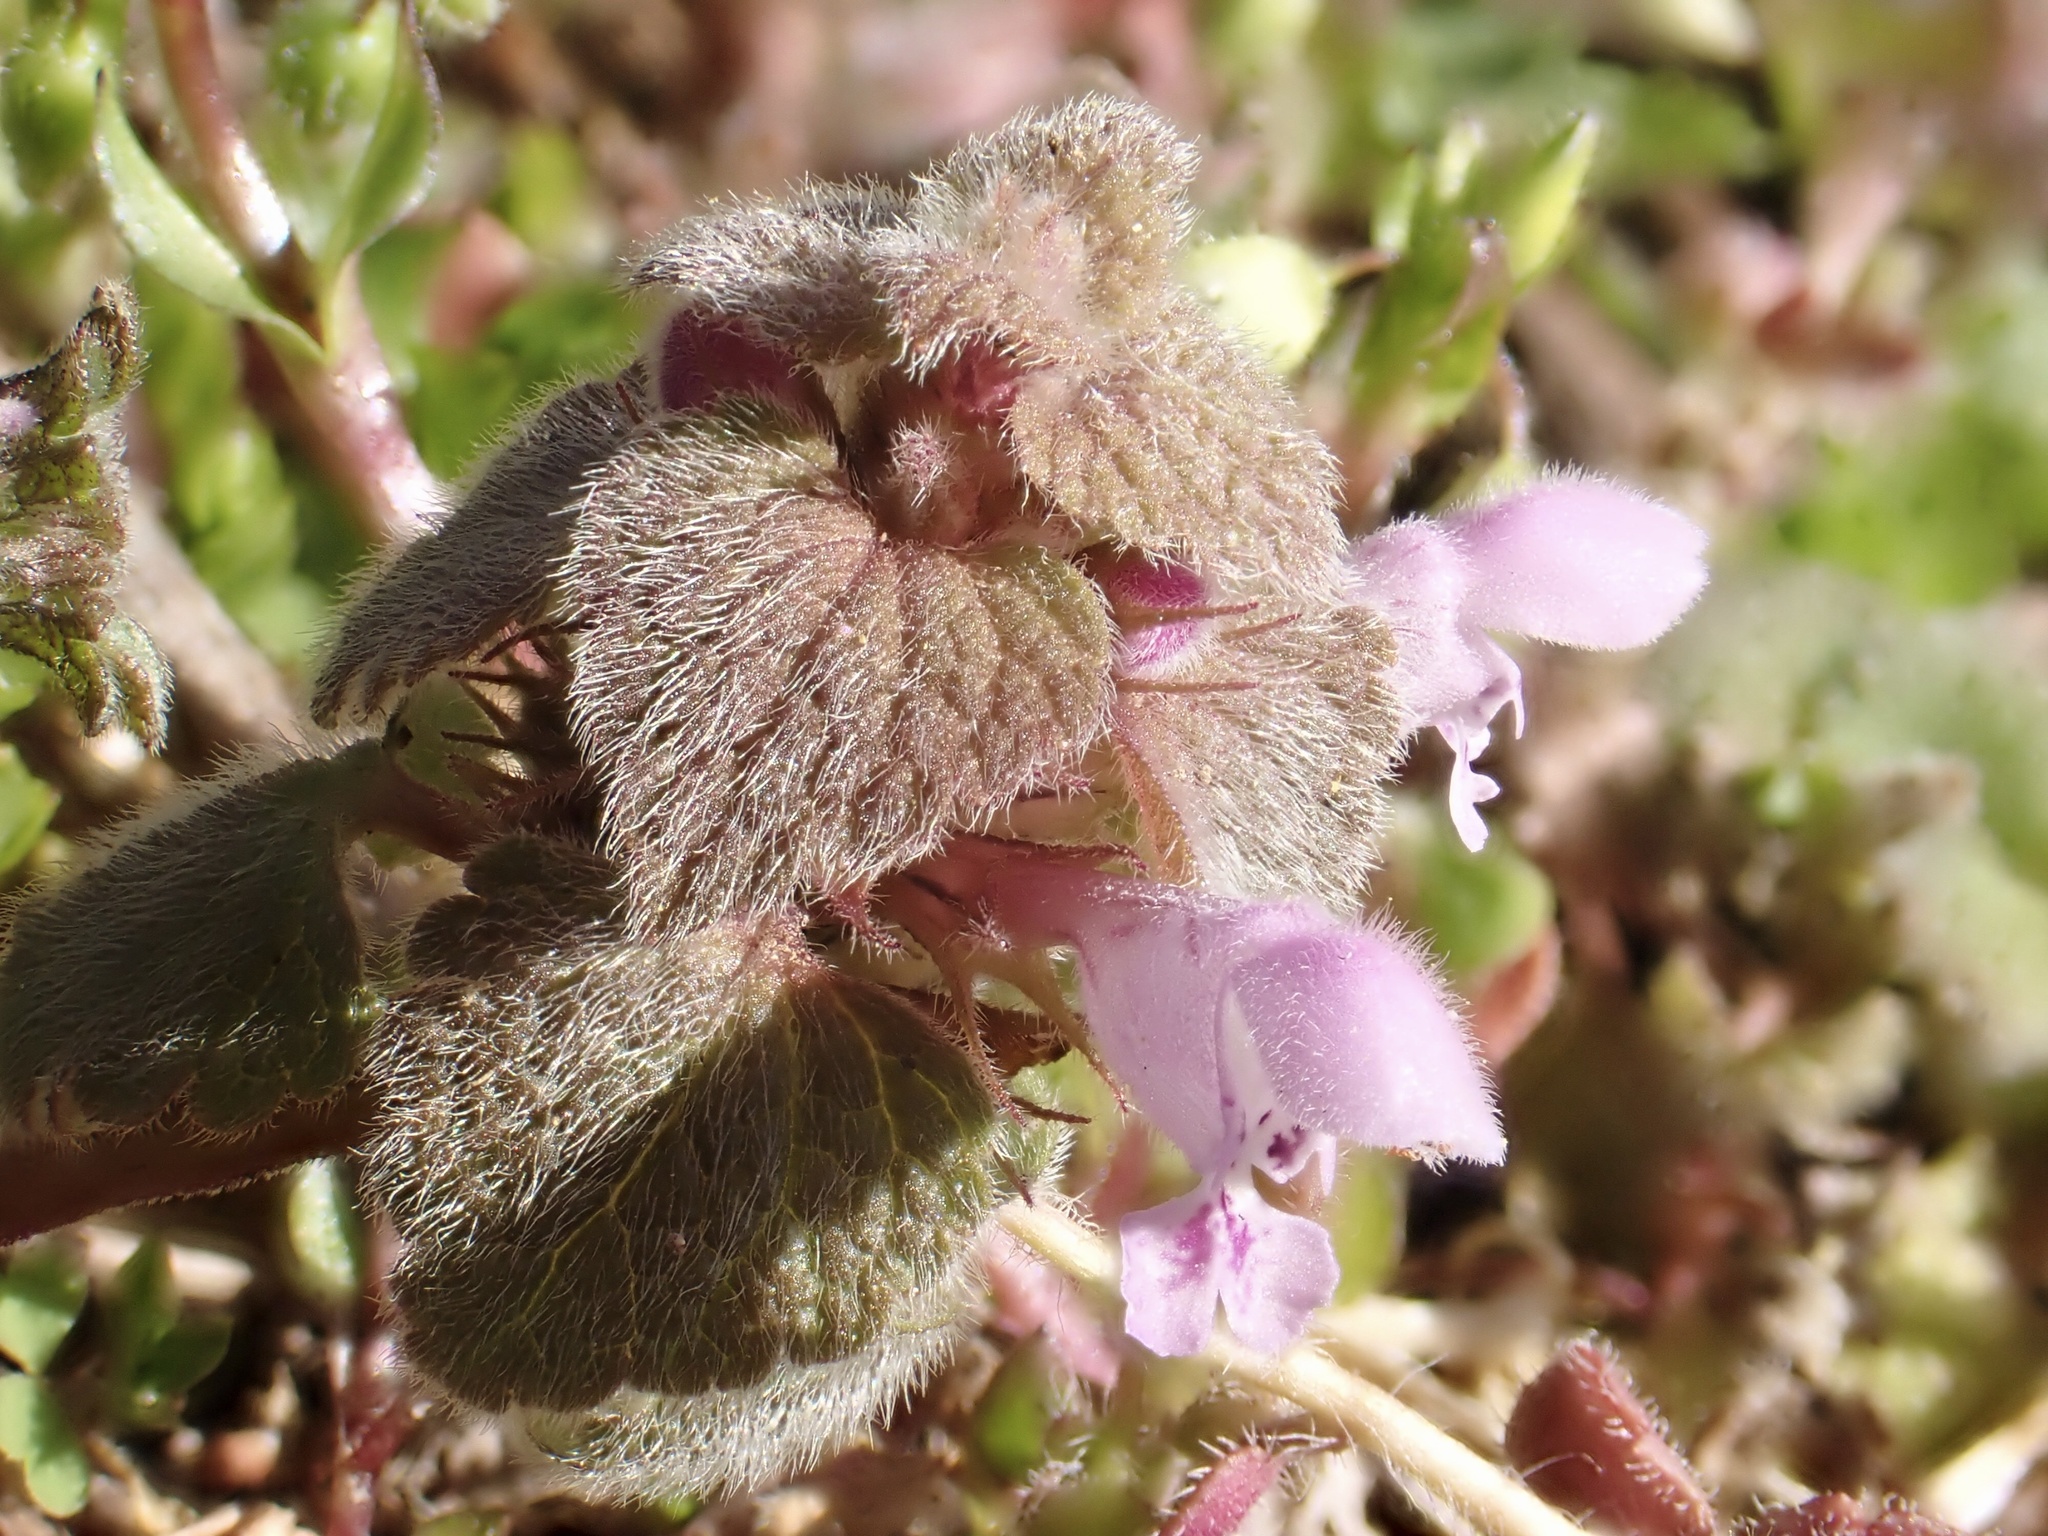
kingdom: Plantae
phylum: Tracheophyta
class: Magnoliopsida
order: Lamiales
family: Lamiaceae
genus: Lamium
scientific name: Lamium purpureum
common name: Red dead-nettle
